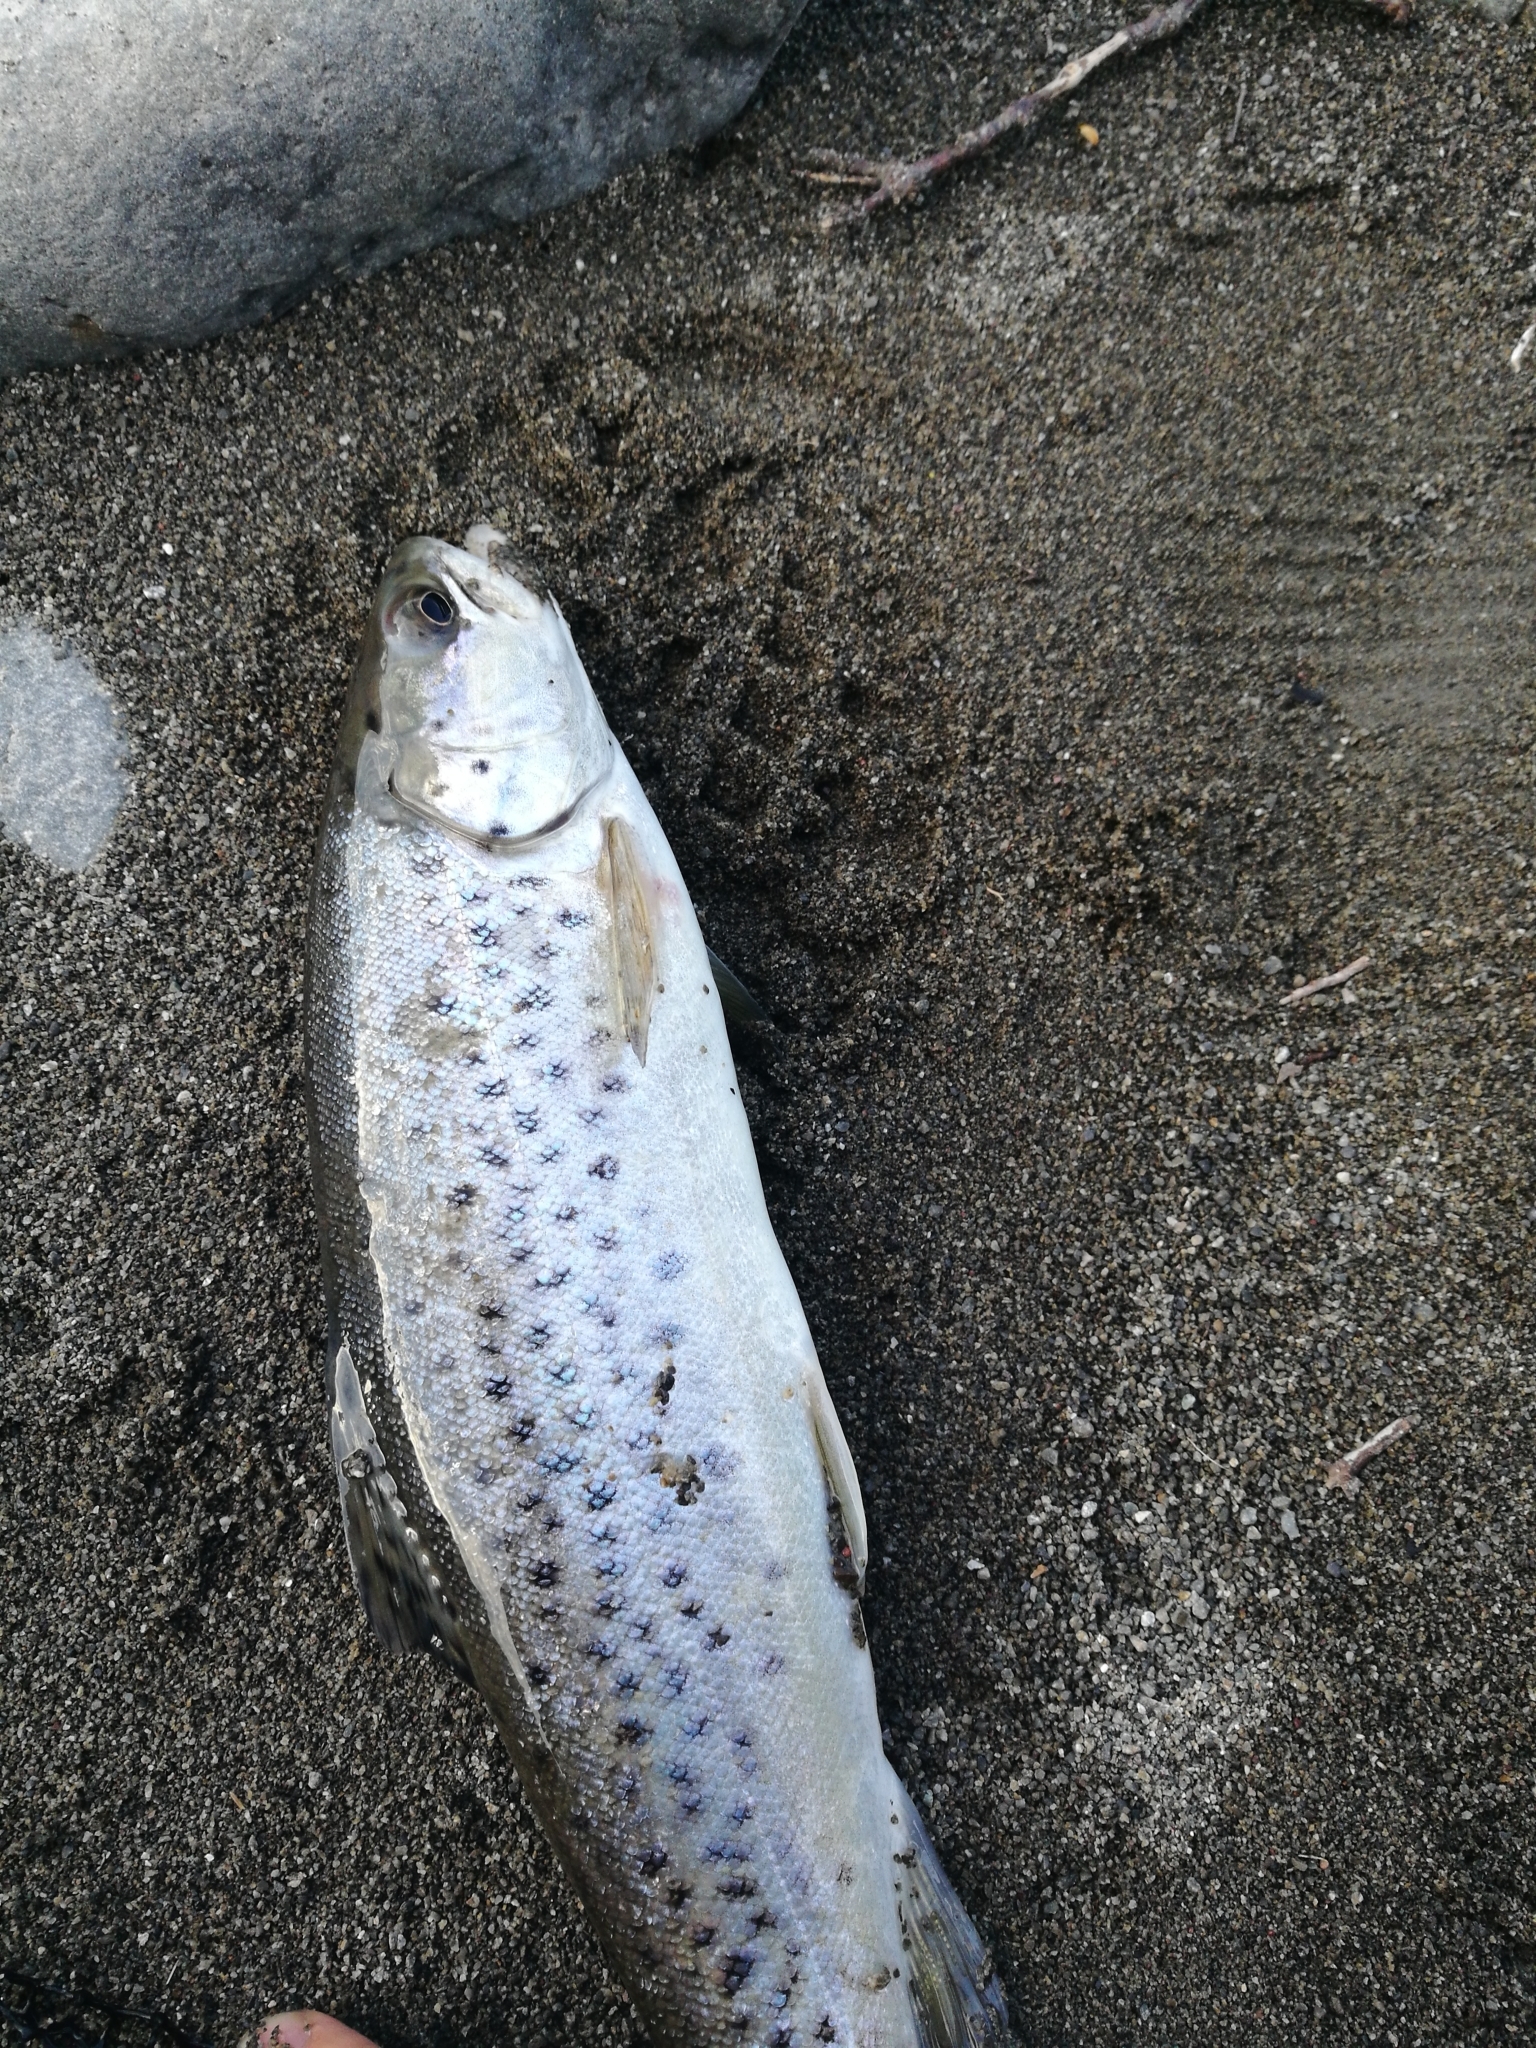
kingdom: Animalia
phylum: Chordata
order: Salmoniformes
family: Salmonidae
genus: Salmo
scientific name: Salmo trutta
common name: Brown trout
